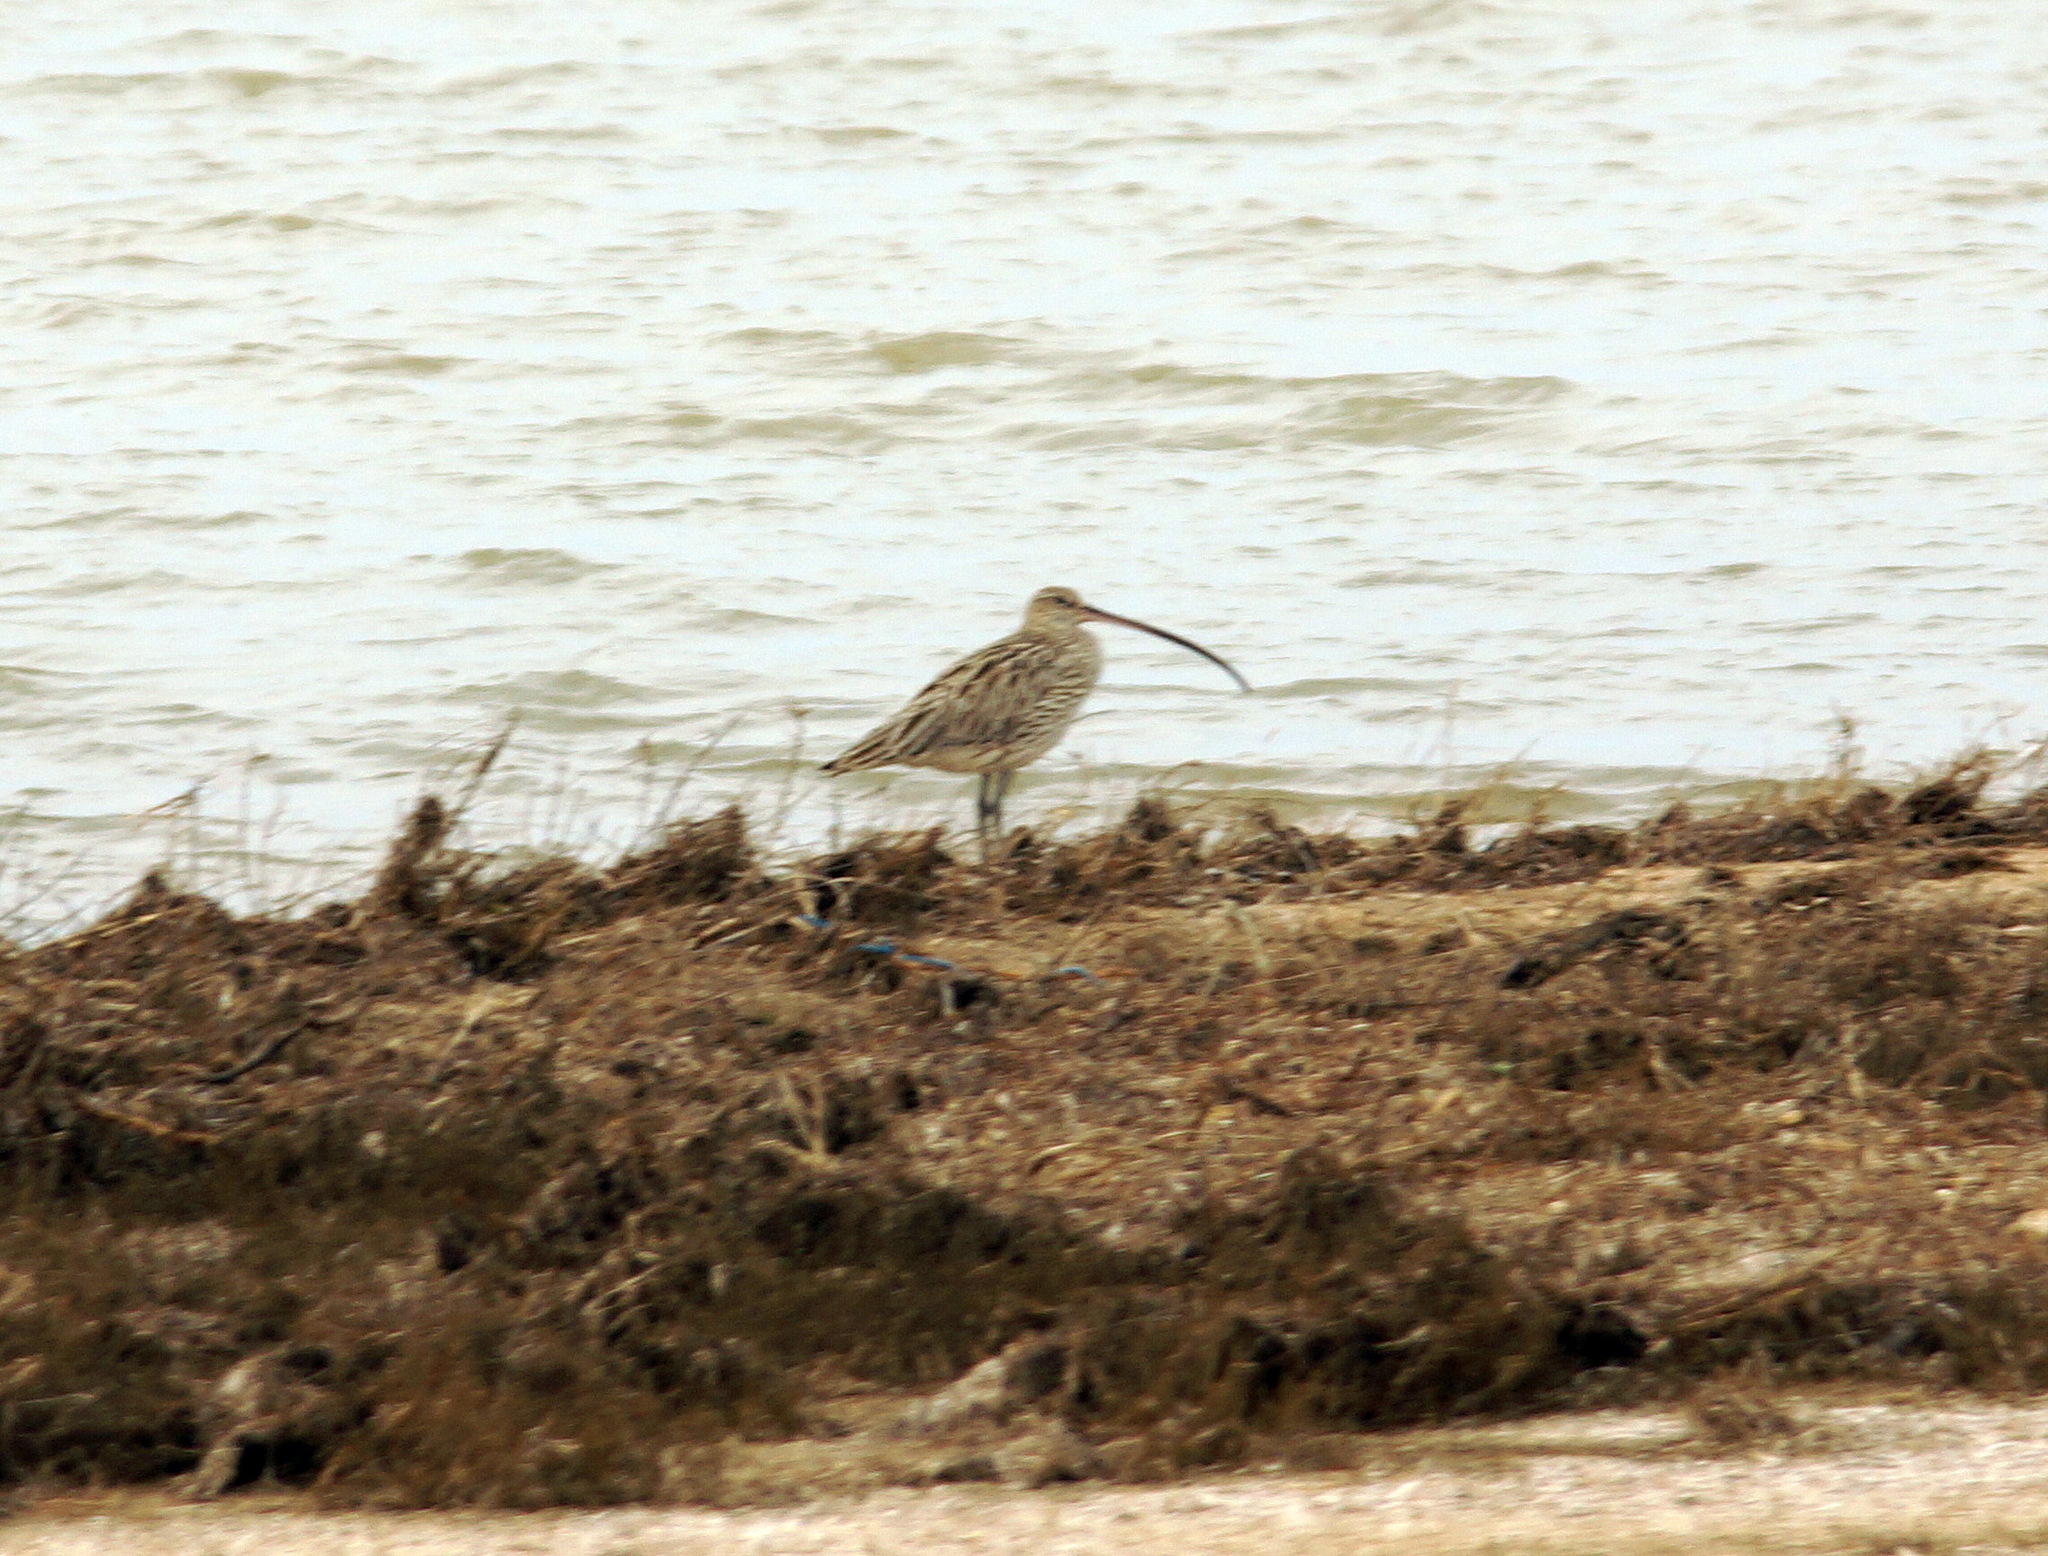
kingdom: Animalia
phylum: Chordata
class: Aves
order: Charadriiformes
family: Scolopacidae
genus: Numenius
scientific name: Numenius arquata
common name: Eurasian curlew
